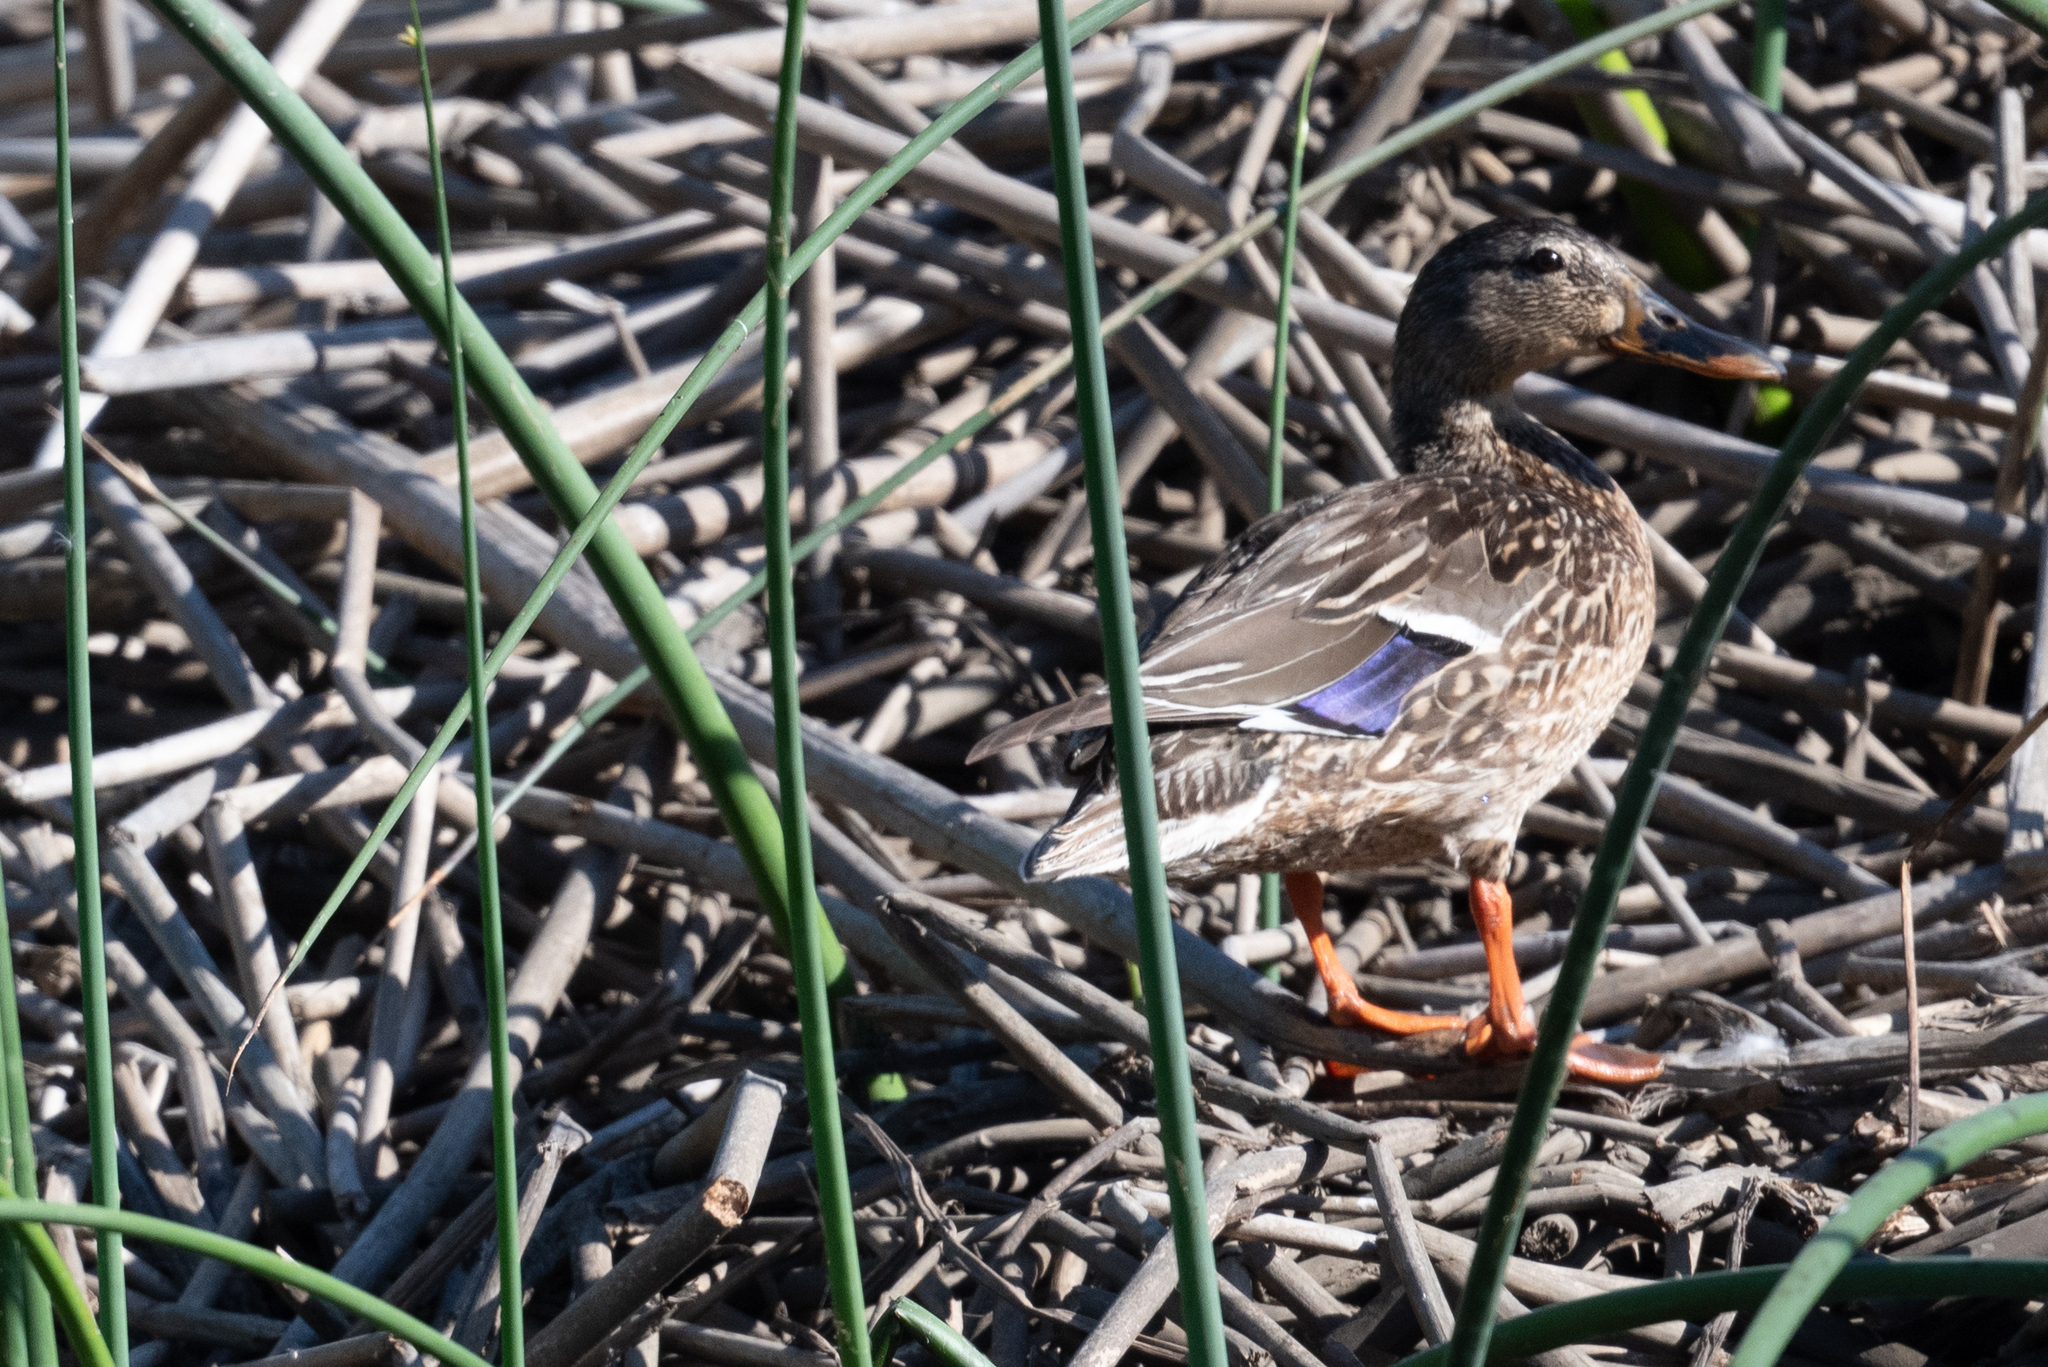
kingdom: Animalia
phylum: Chordata
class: Aves
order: Anseriformes
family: Anatidae
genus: Anas
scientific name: Anas platyrhynchos
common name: Mallard
